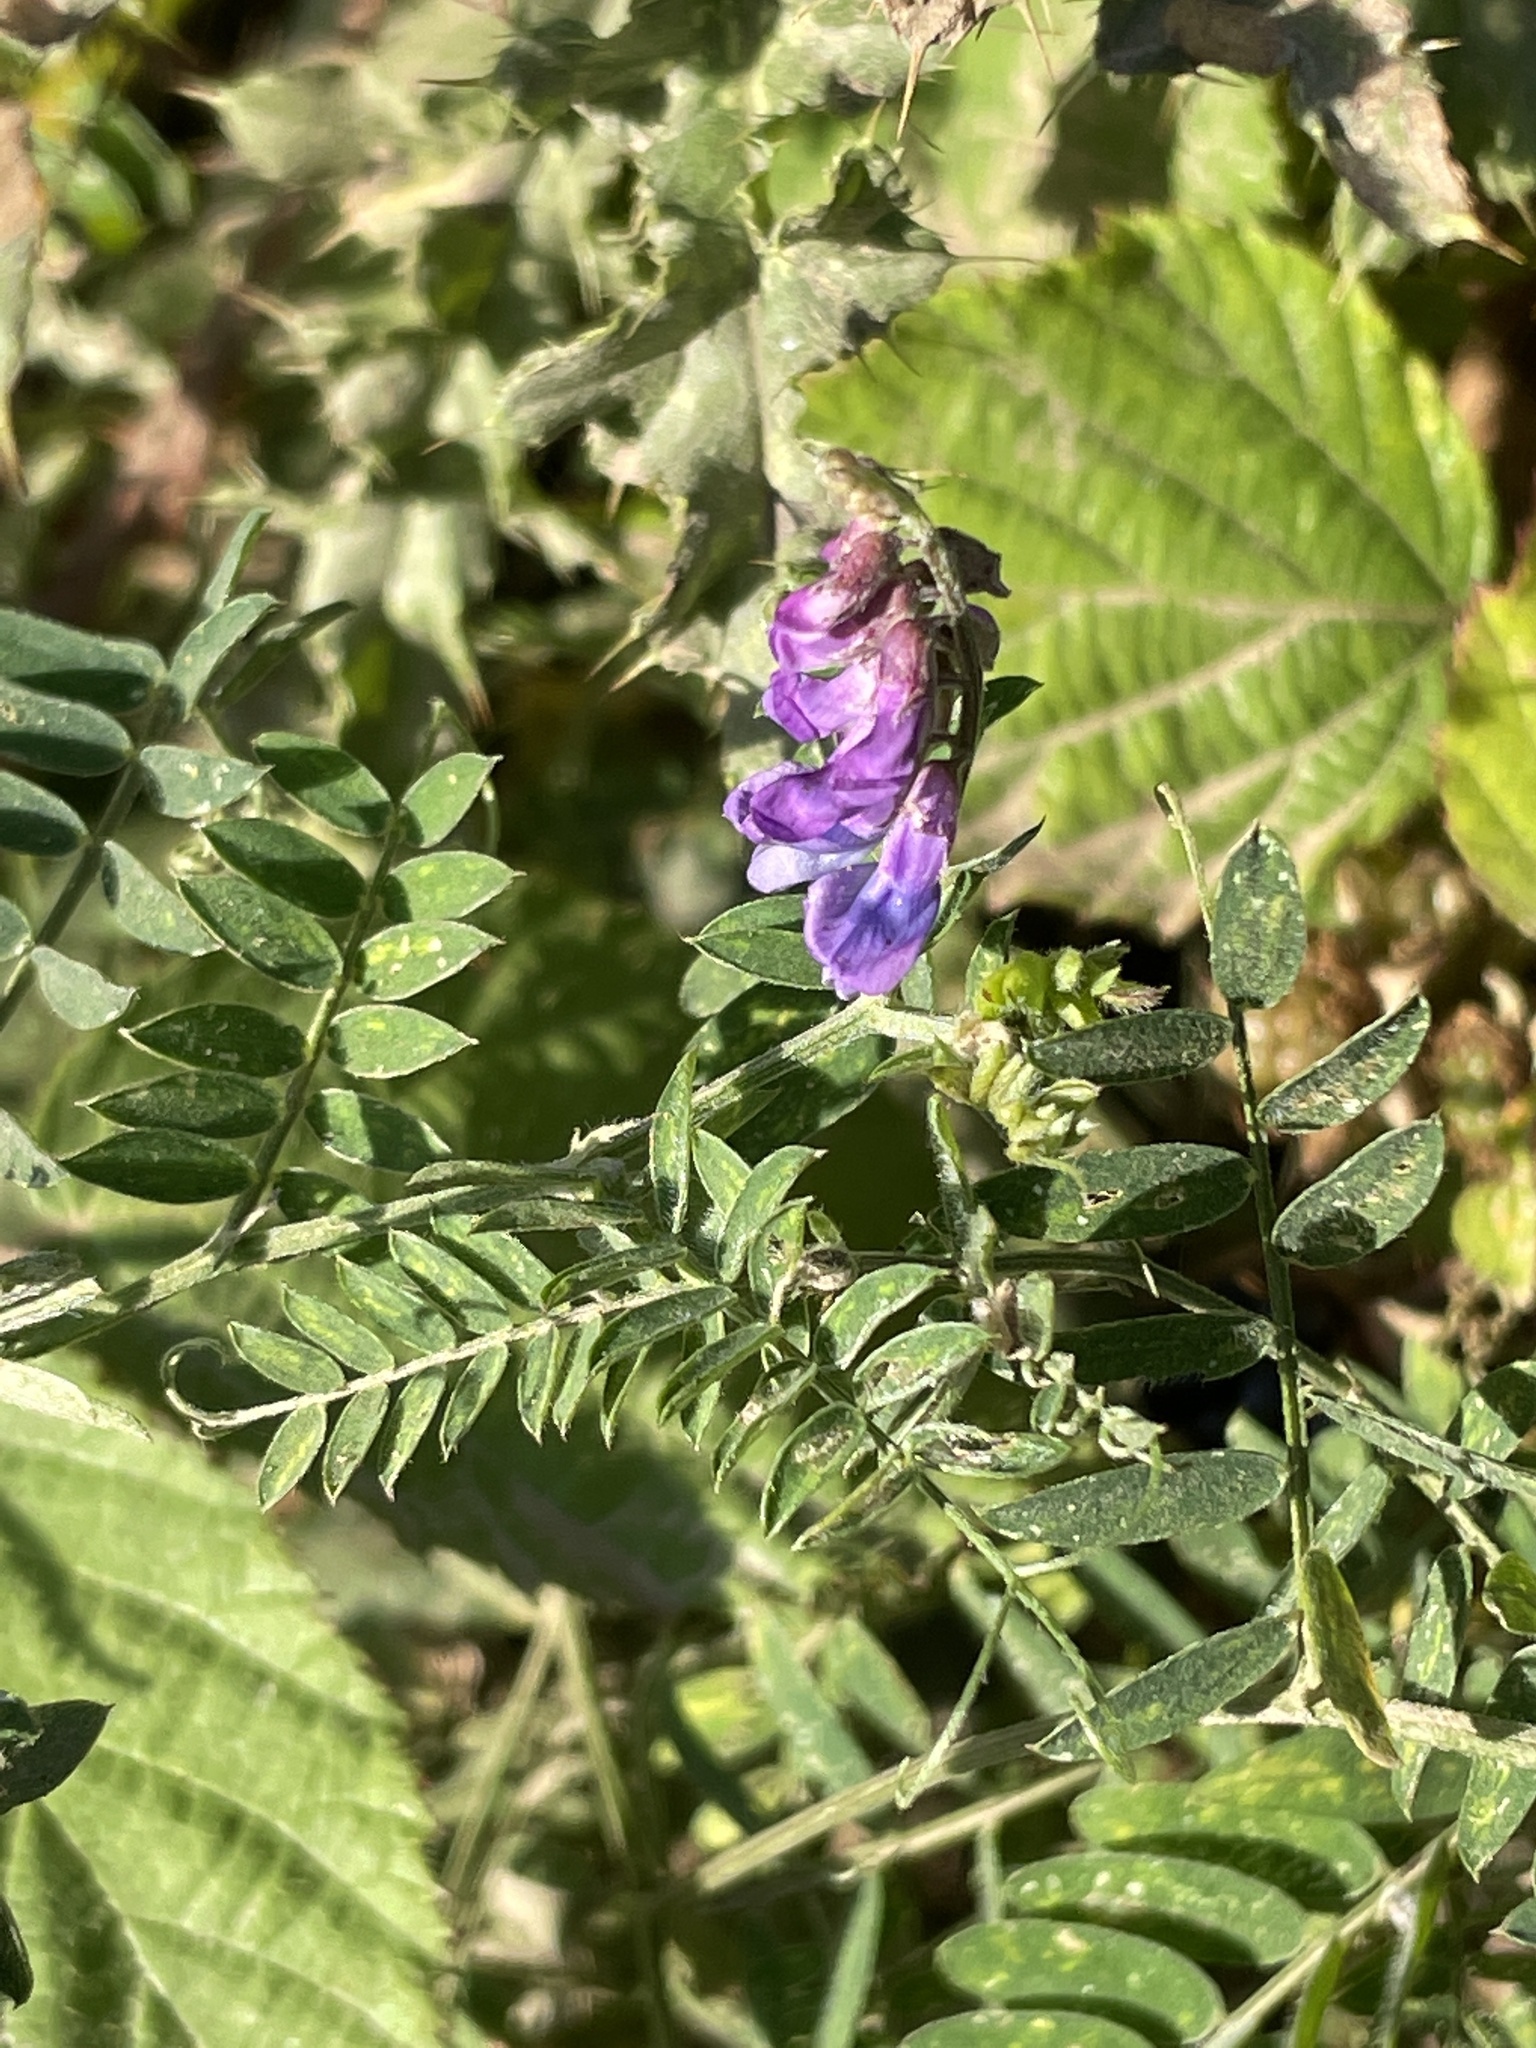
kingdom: Plantae
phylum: Tracheophyta
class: Magnoliopsida
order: Fabales
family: Fabaceae
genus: Vicia
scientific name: Vicia cracca
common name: Bird vetch
